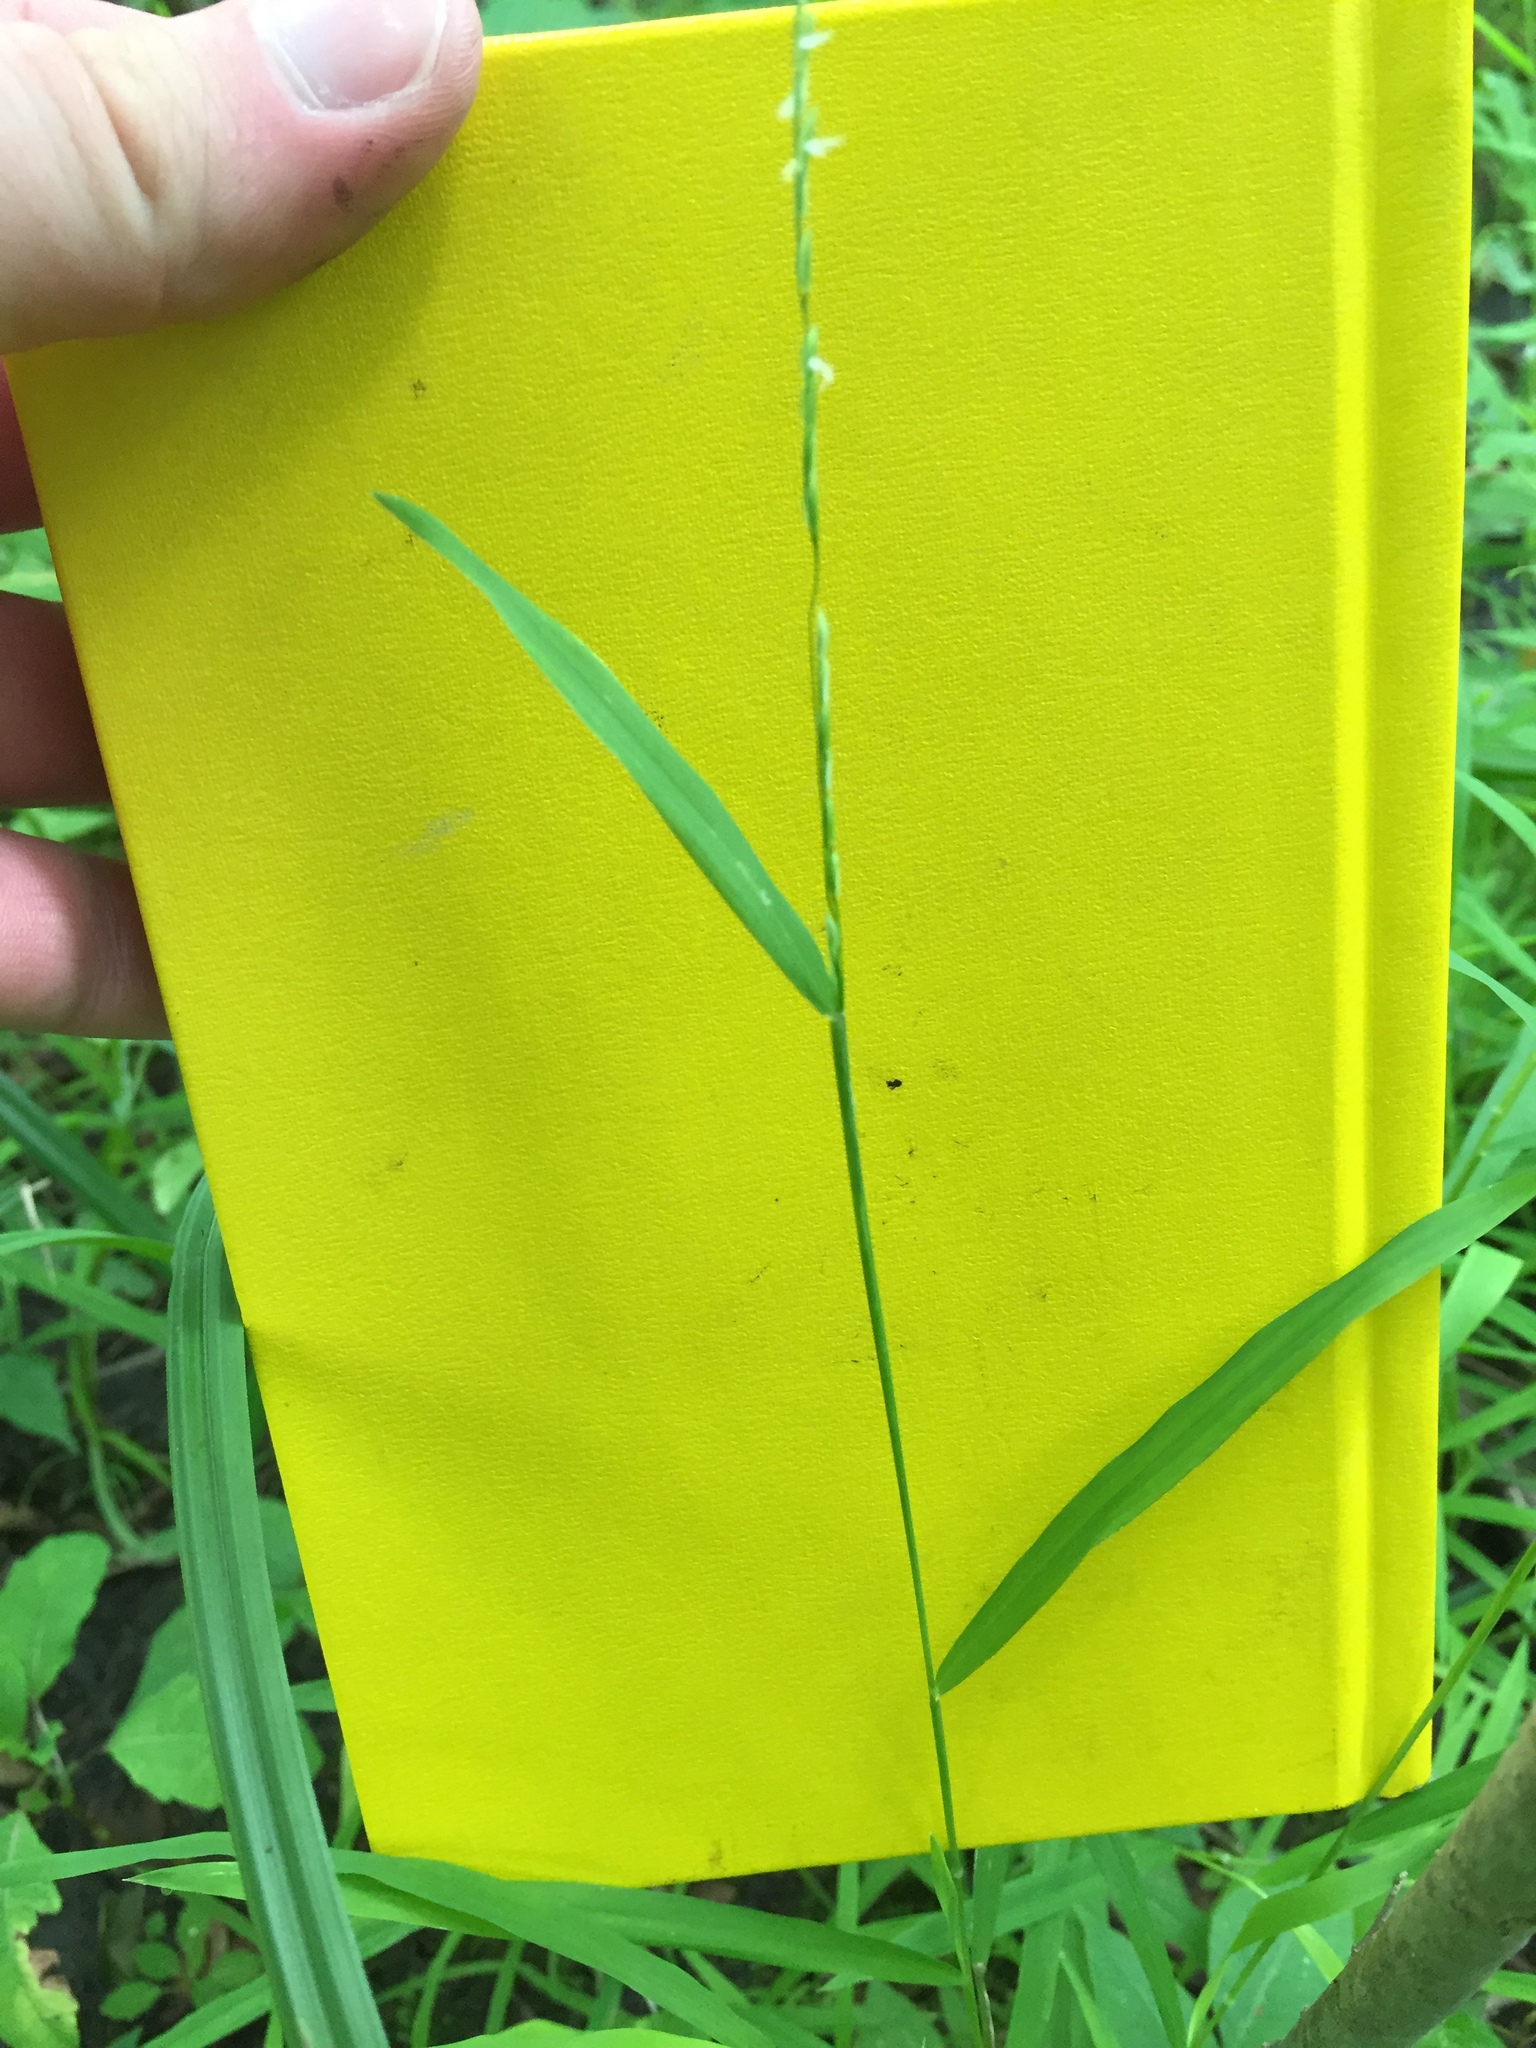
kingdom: Plantae
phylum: Tracheophyta
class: Liliopsida
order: Poales
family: Poaceae
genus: Leersia
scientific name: Leersia virginica
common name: White cutgrass
